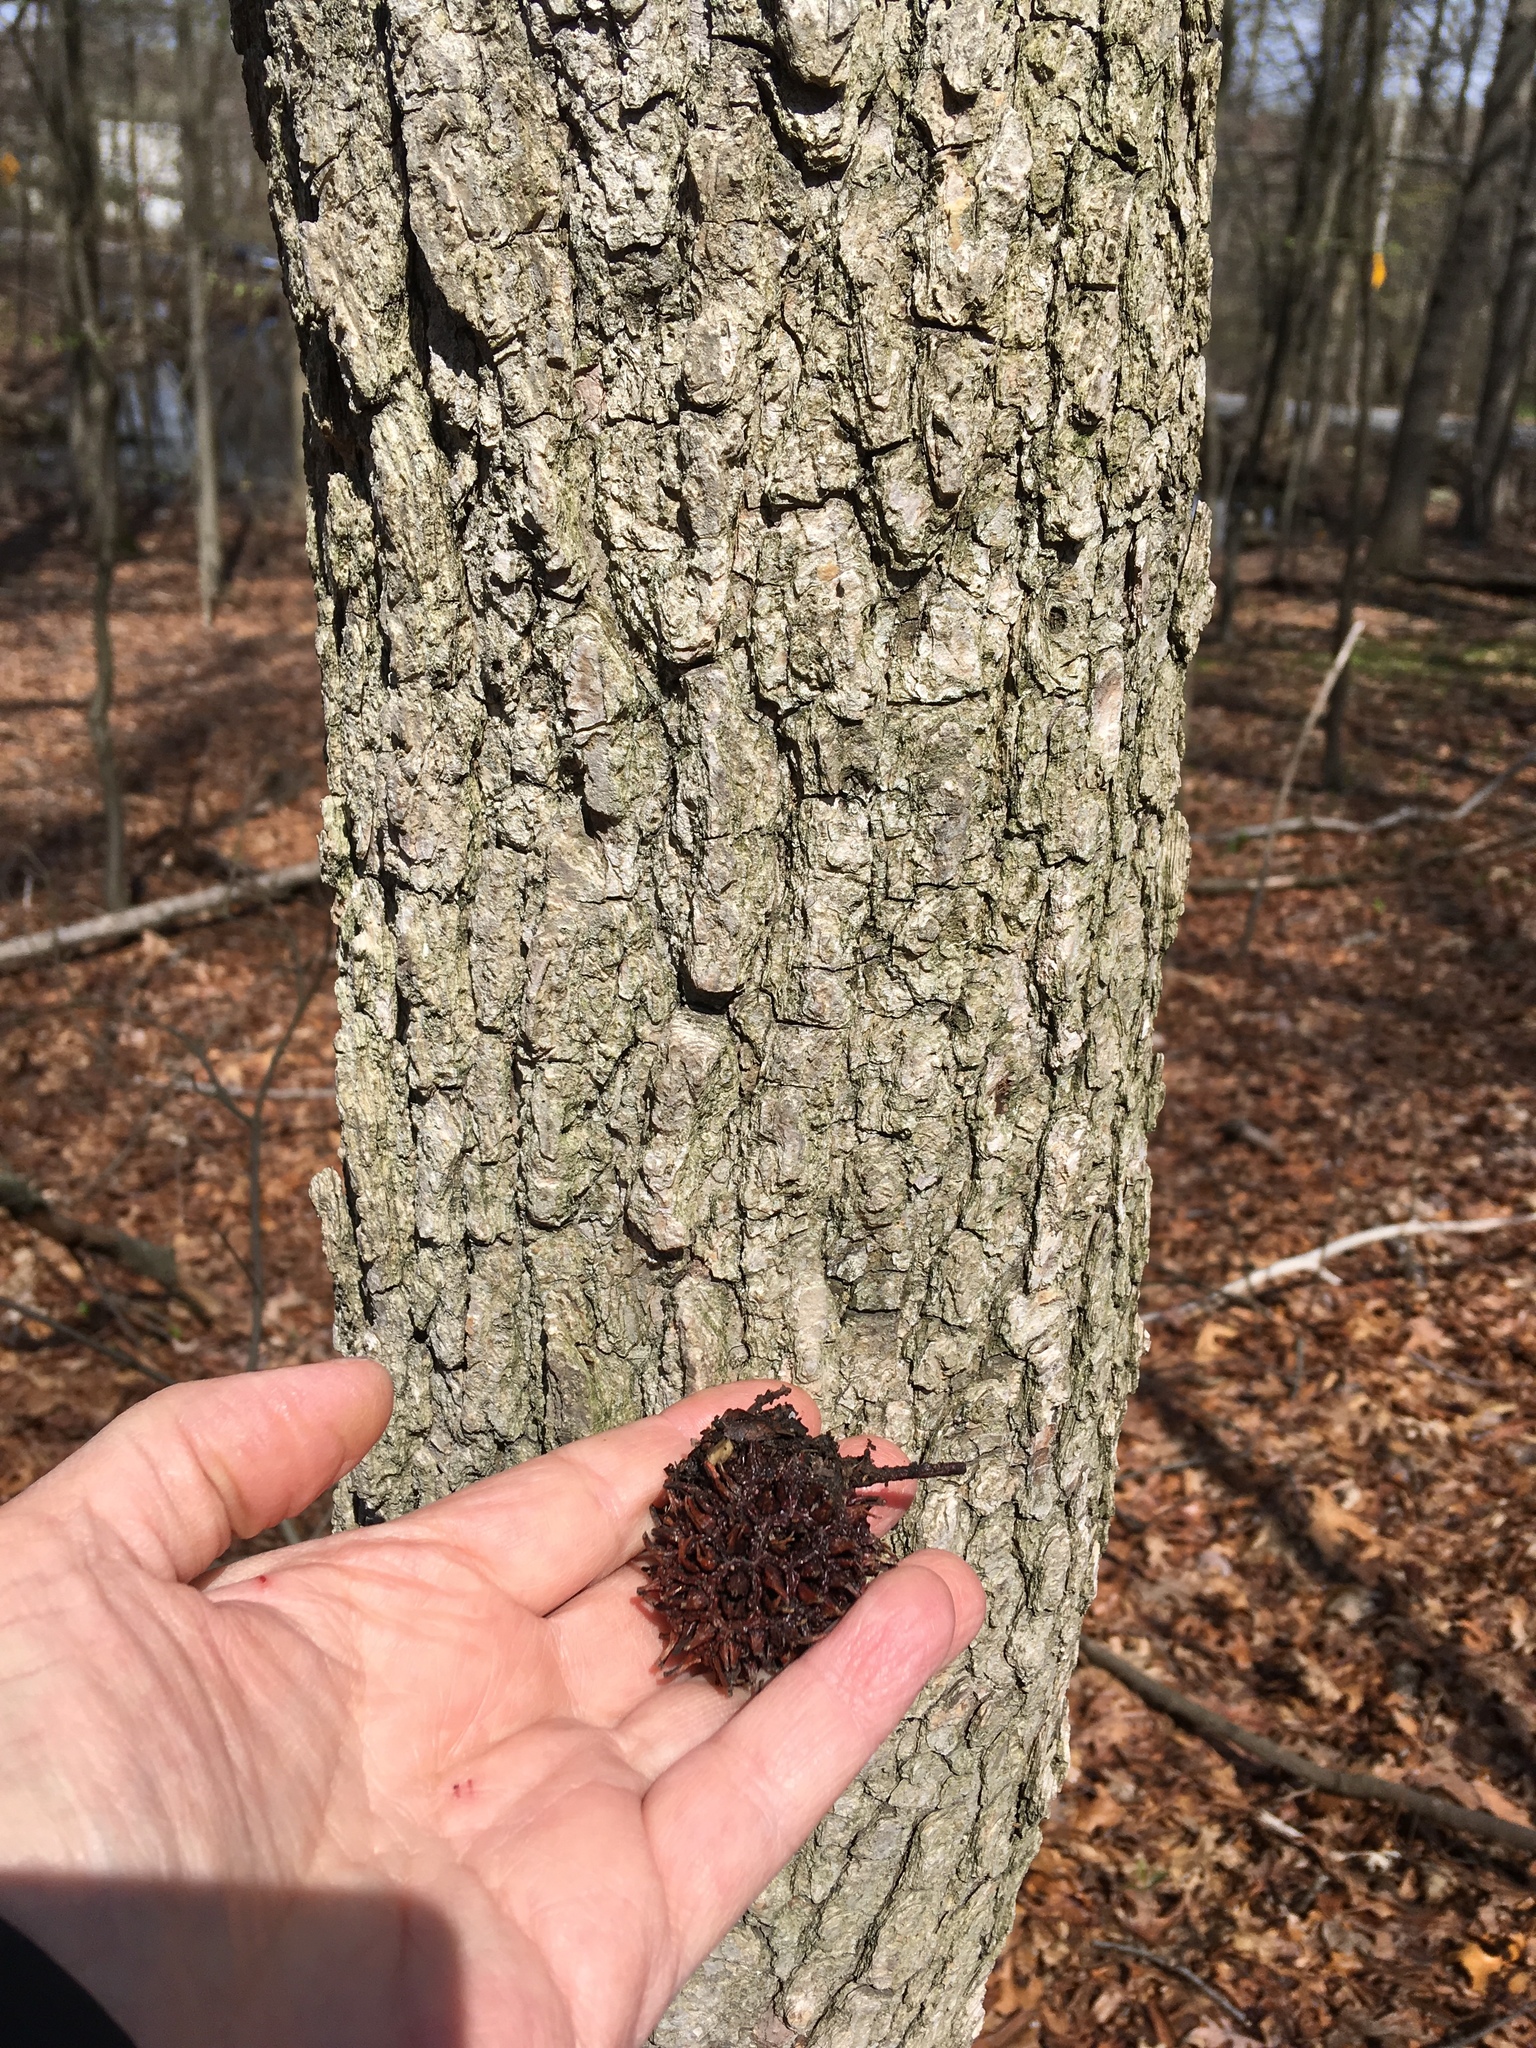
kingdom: Plantae
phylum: Tracheophyta
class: Magnoliopsida
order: Saxifragales
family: Altingiaceae
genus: Liquidambar
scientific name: Liquidambar styraciflua
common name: Sweet gum
